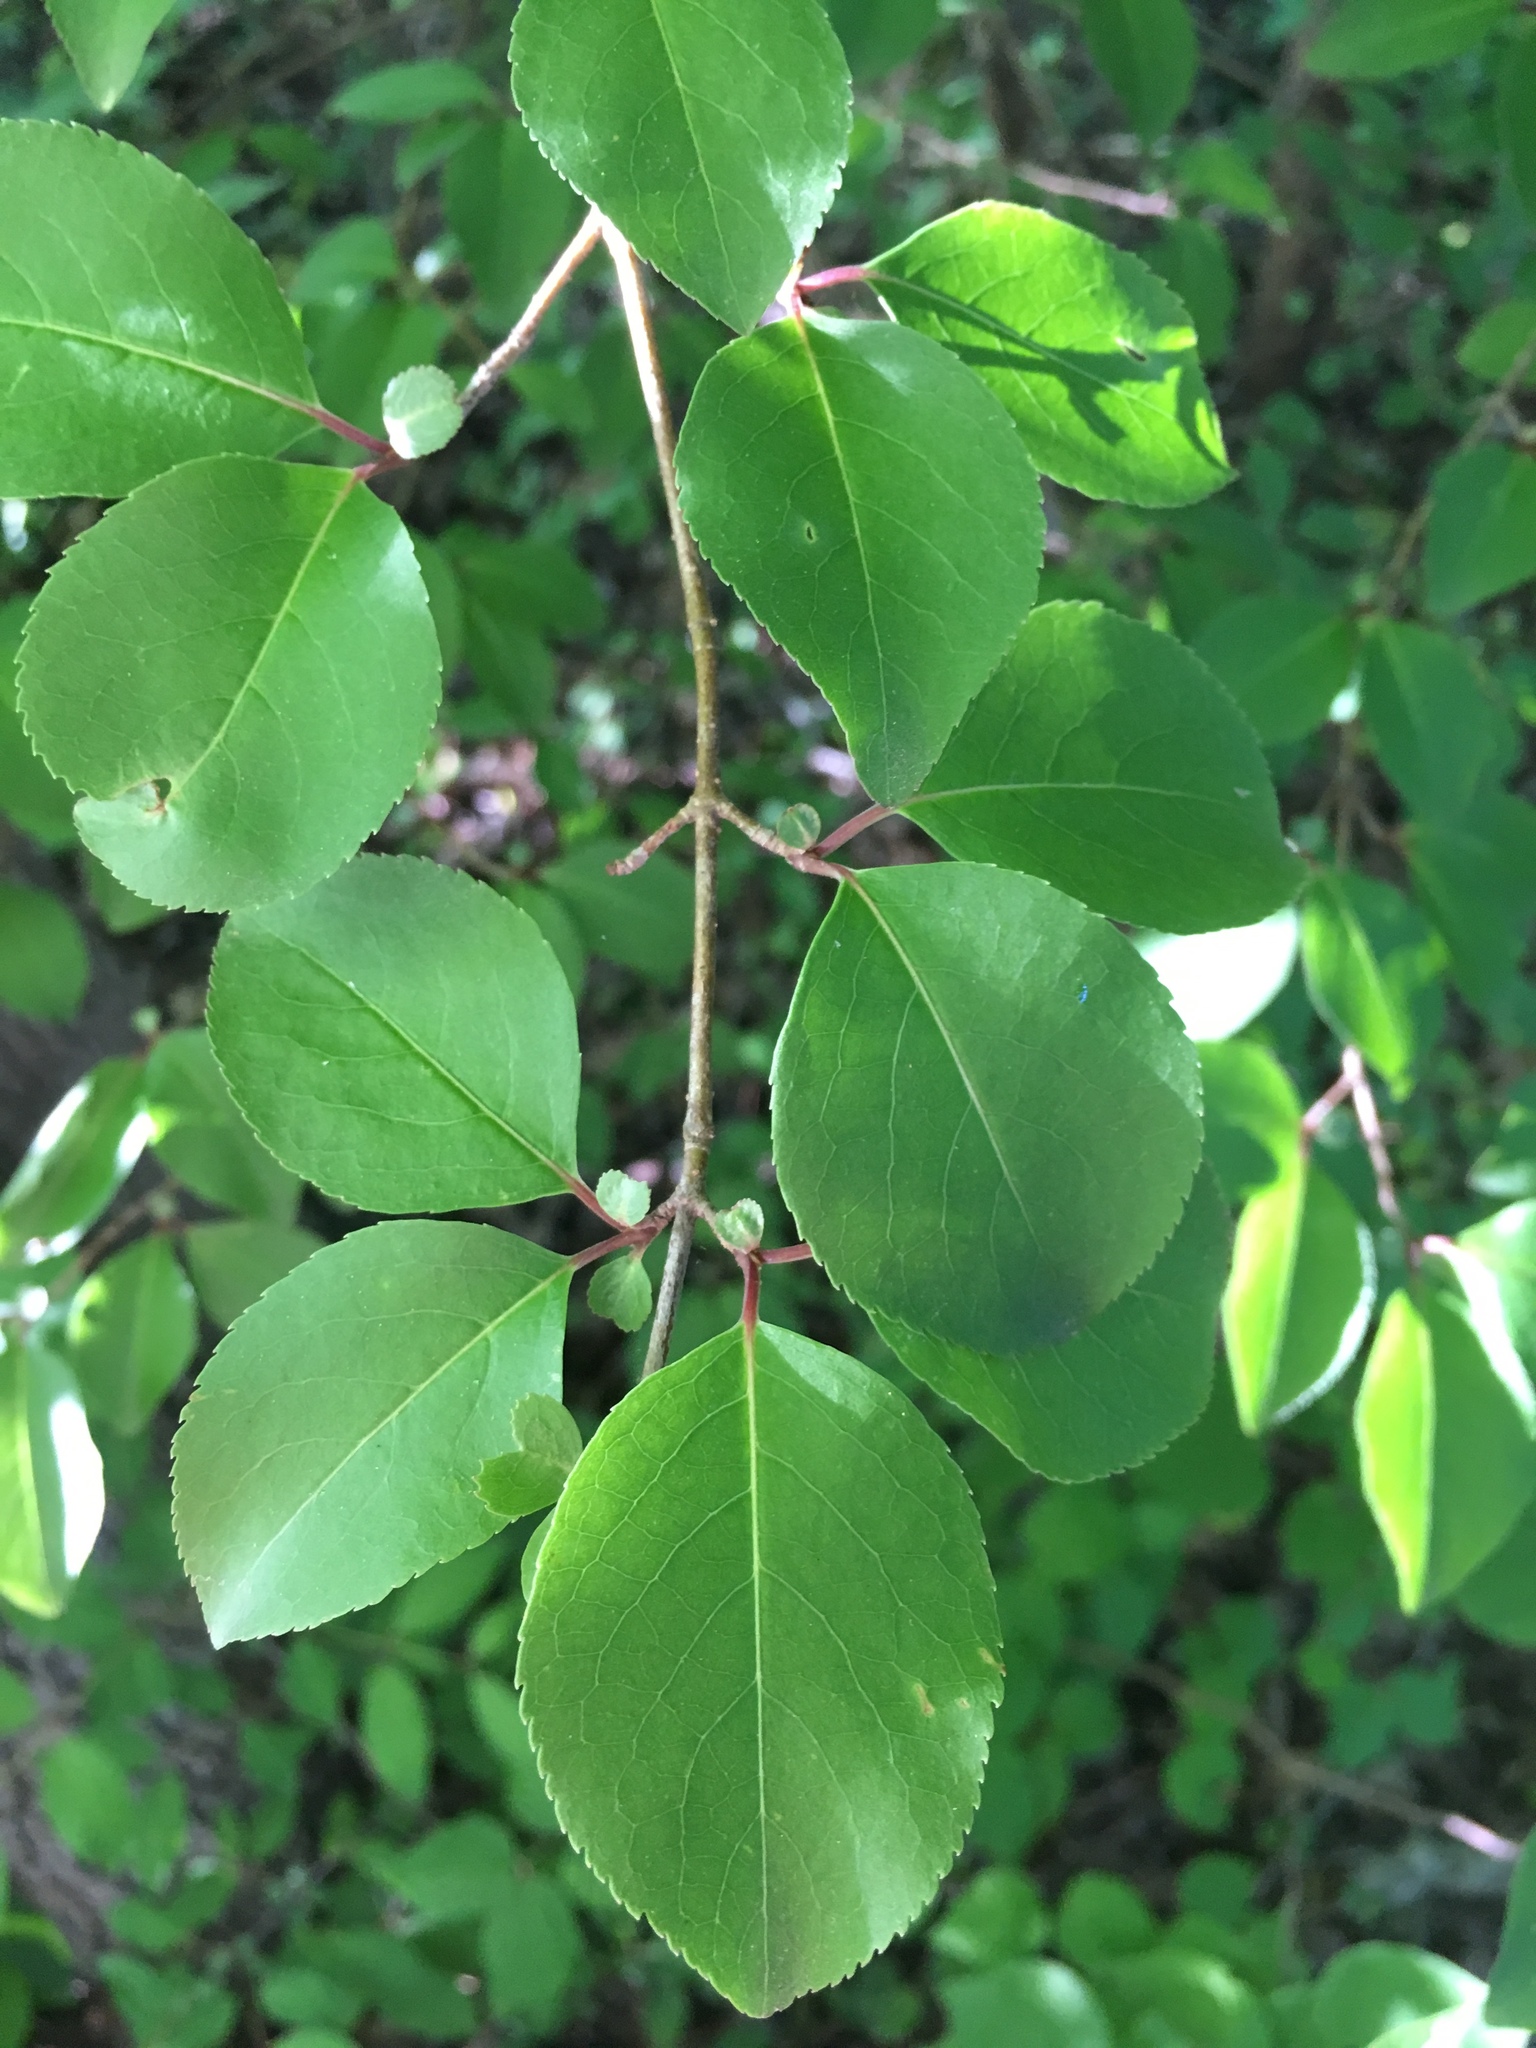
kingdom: Plantae
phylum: Tracheophyta
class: Magnoliopsida
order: Dipsacales
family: Viburnaceae
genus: Viburnum
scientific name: Viburnum prunifolium
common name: Black haw
